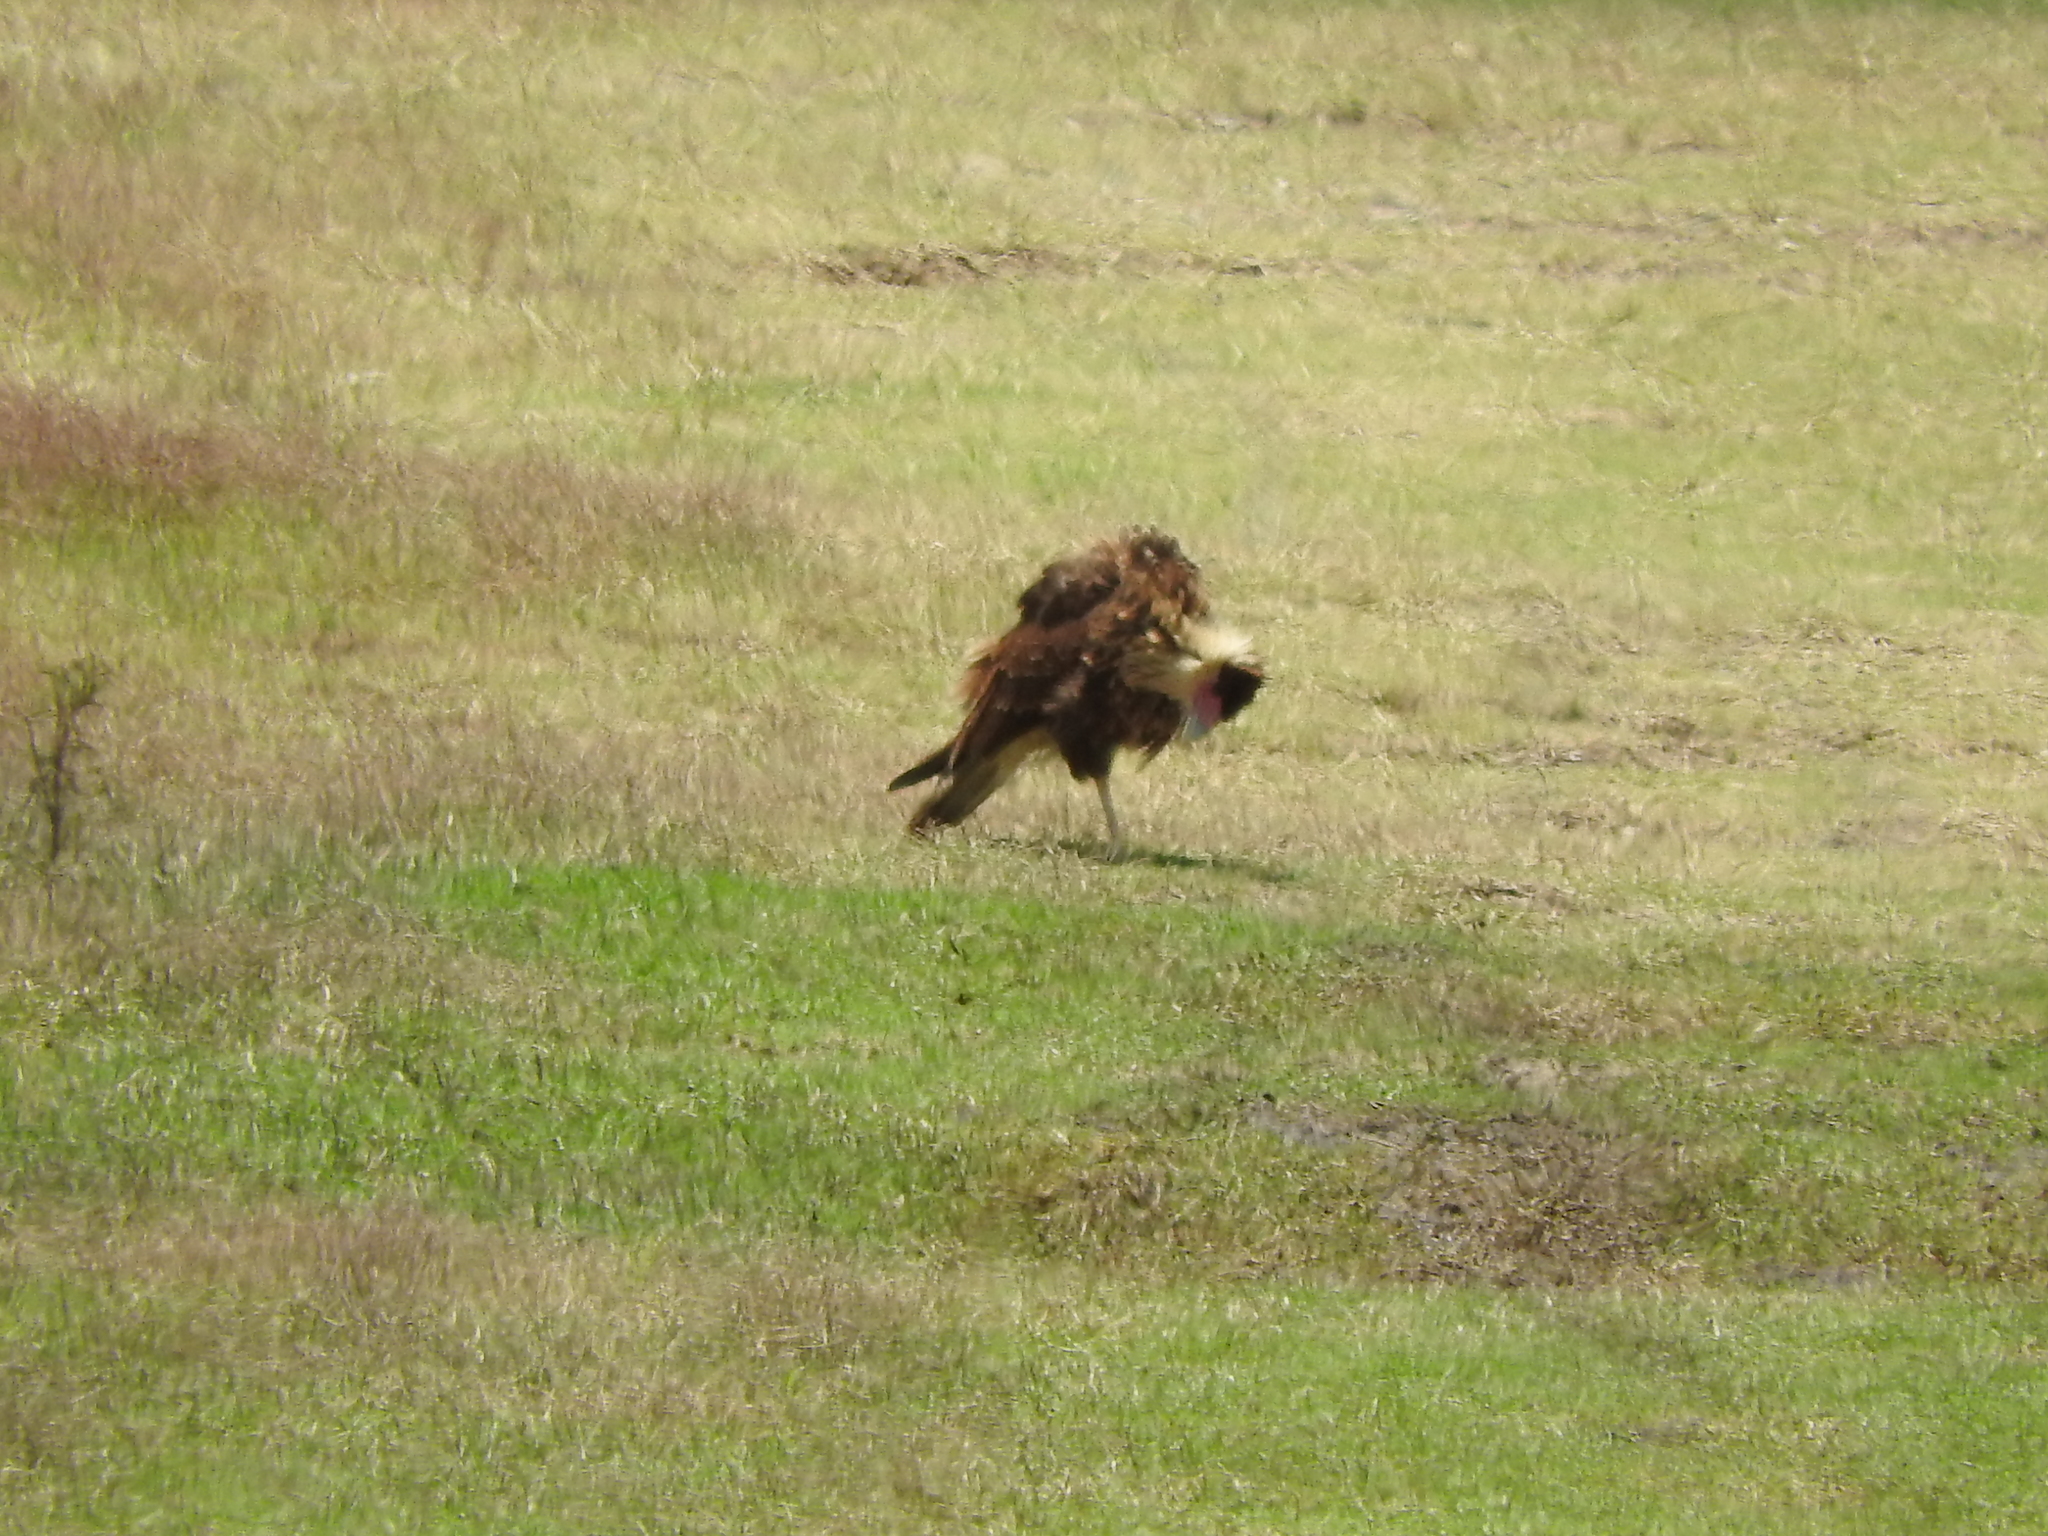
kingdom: Animalia
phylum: Chordata
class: Aves
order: Falconiformes
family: Falconidae
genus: Caracara
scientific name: Caracara plancus
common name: Southern caracara
